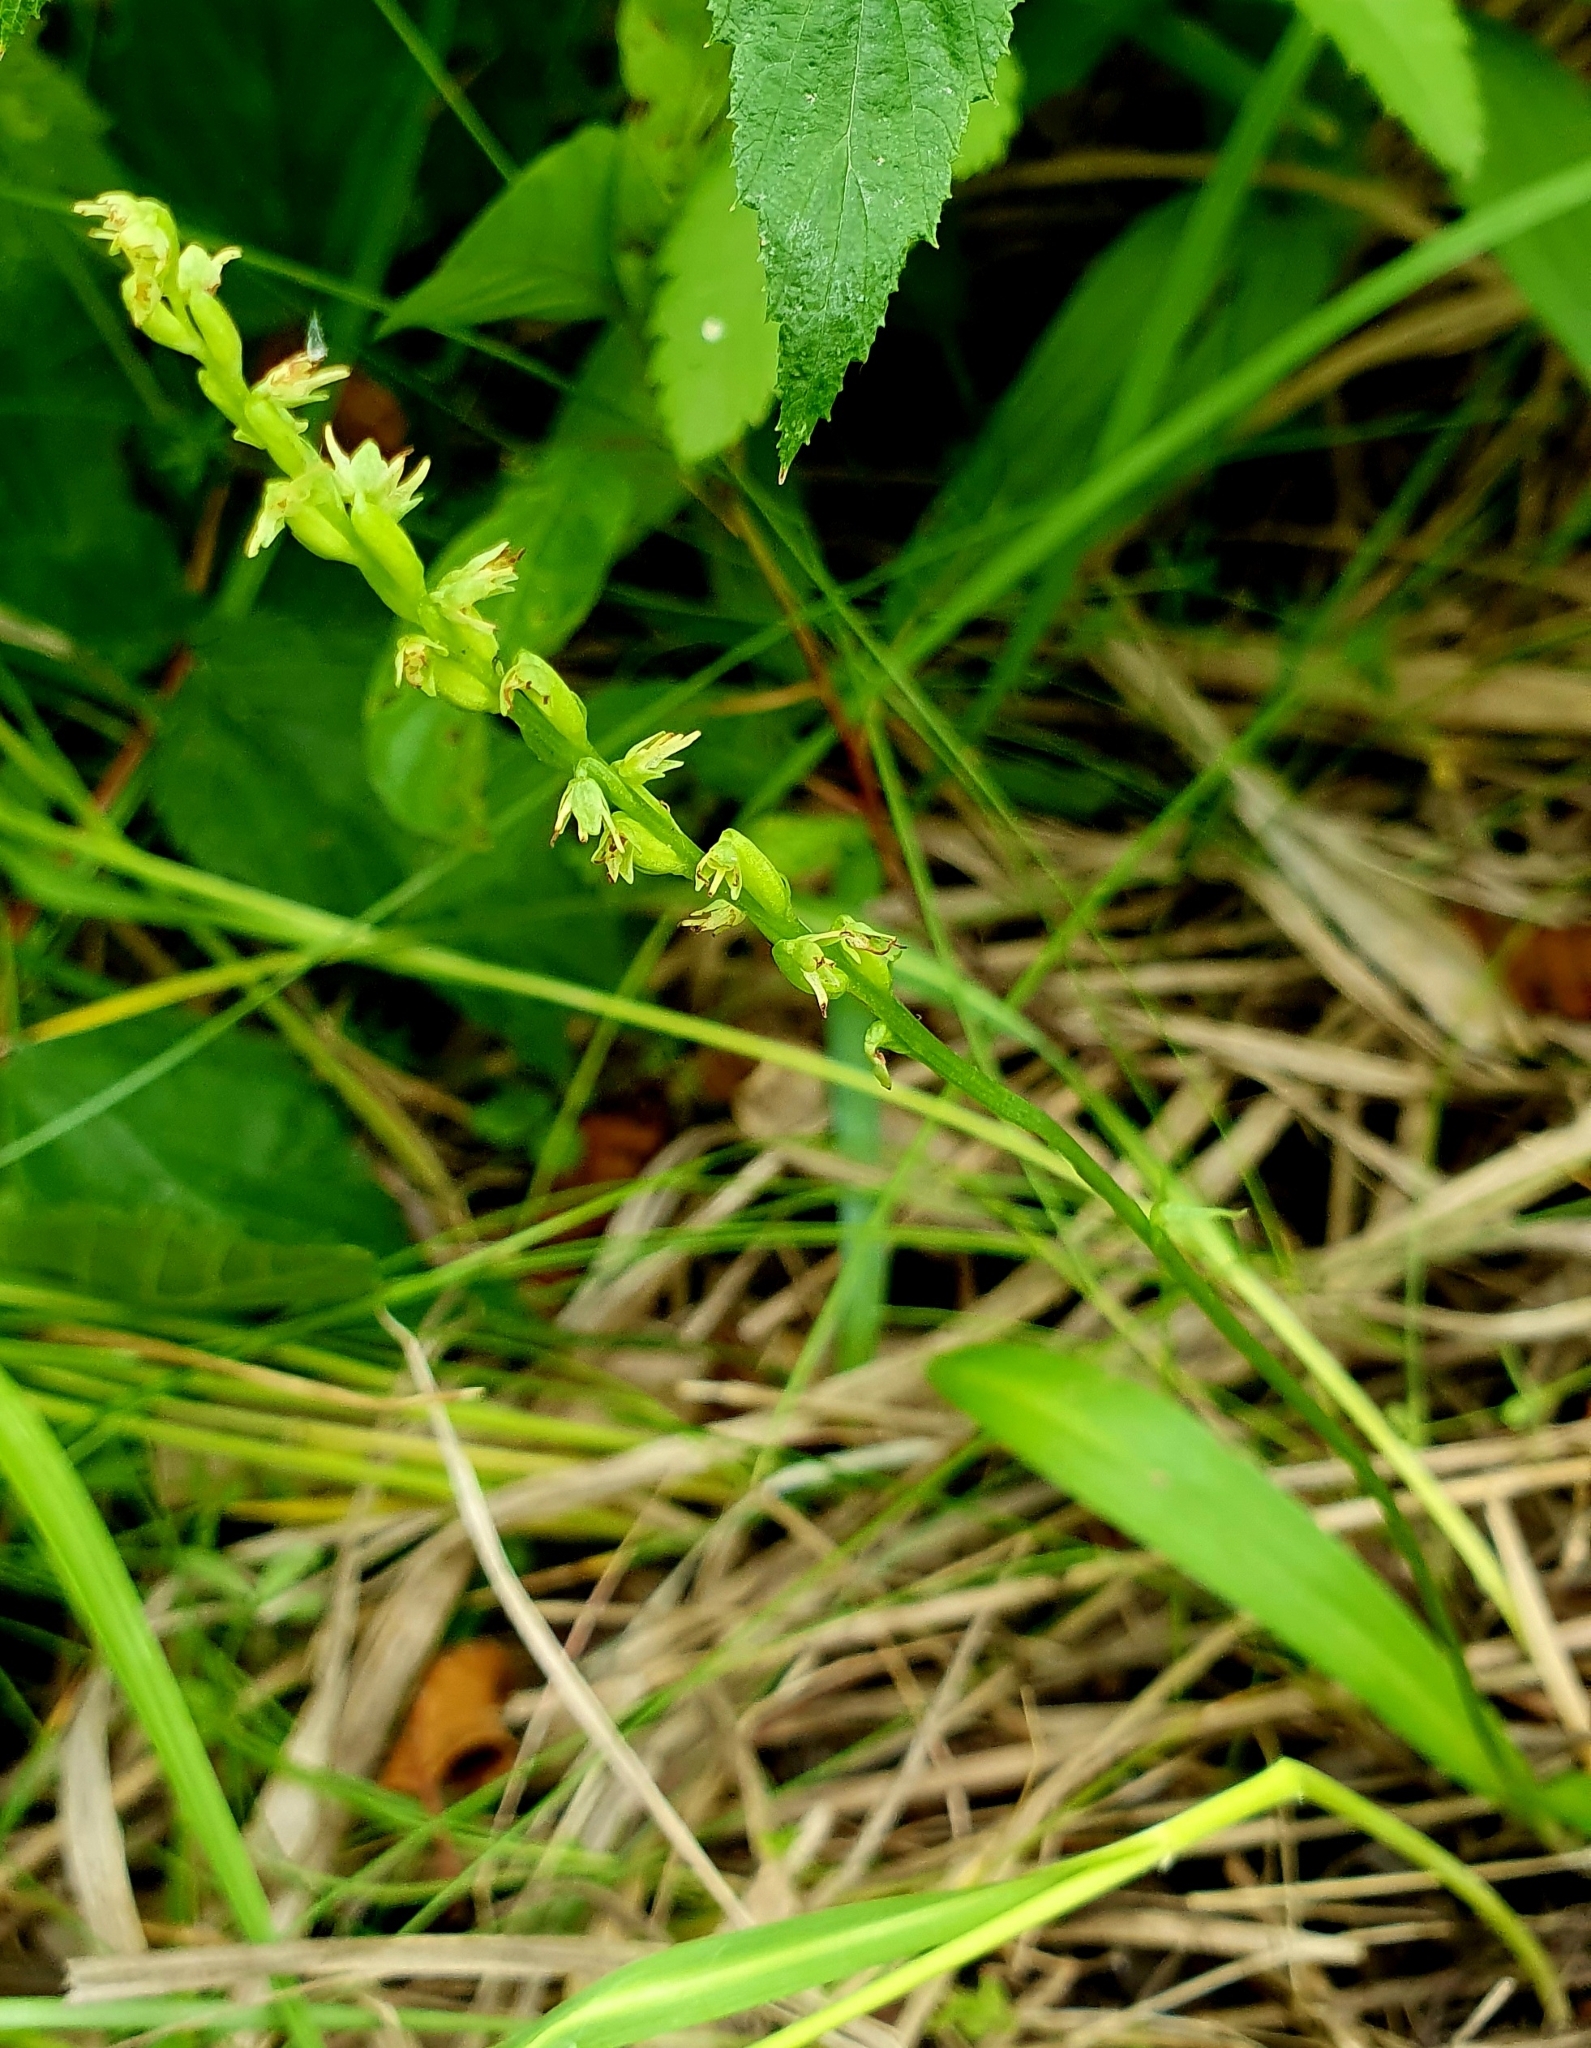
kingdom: Plantae
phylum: Tracheophyta
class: Liliopsida
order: Asparagales
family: Orchidaceae
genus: Herminium
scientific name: Herminium monorchis
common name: Musk orchid
